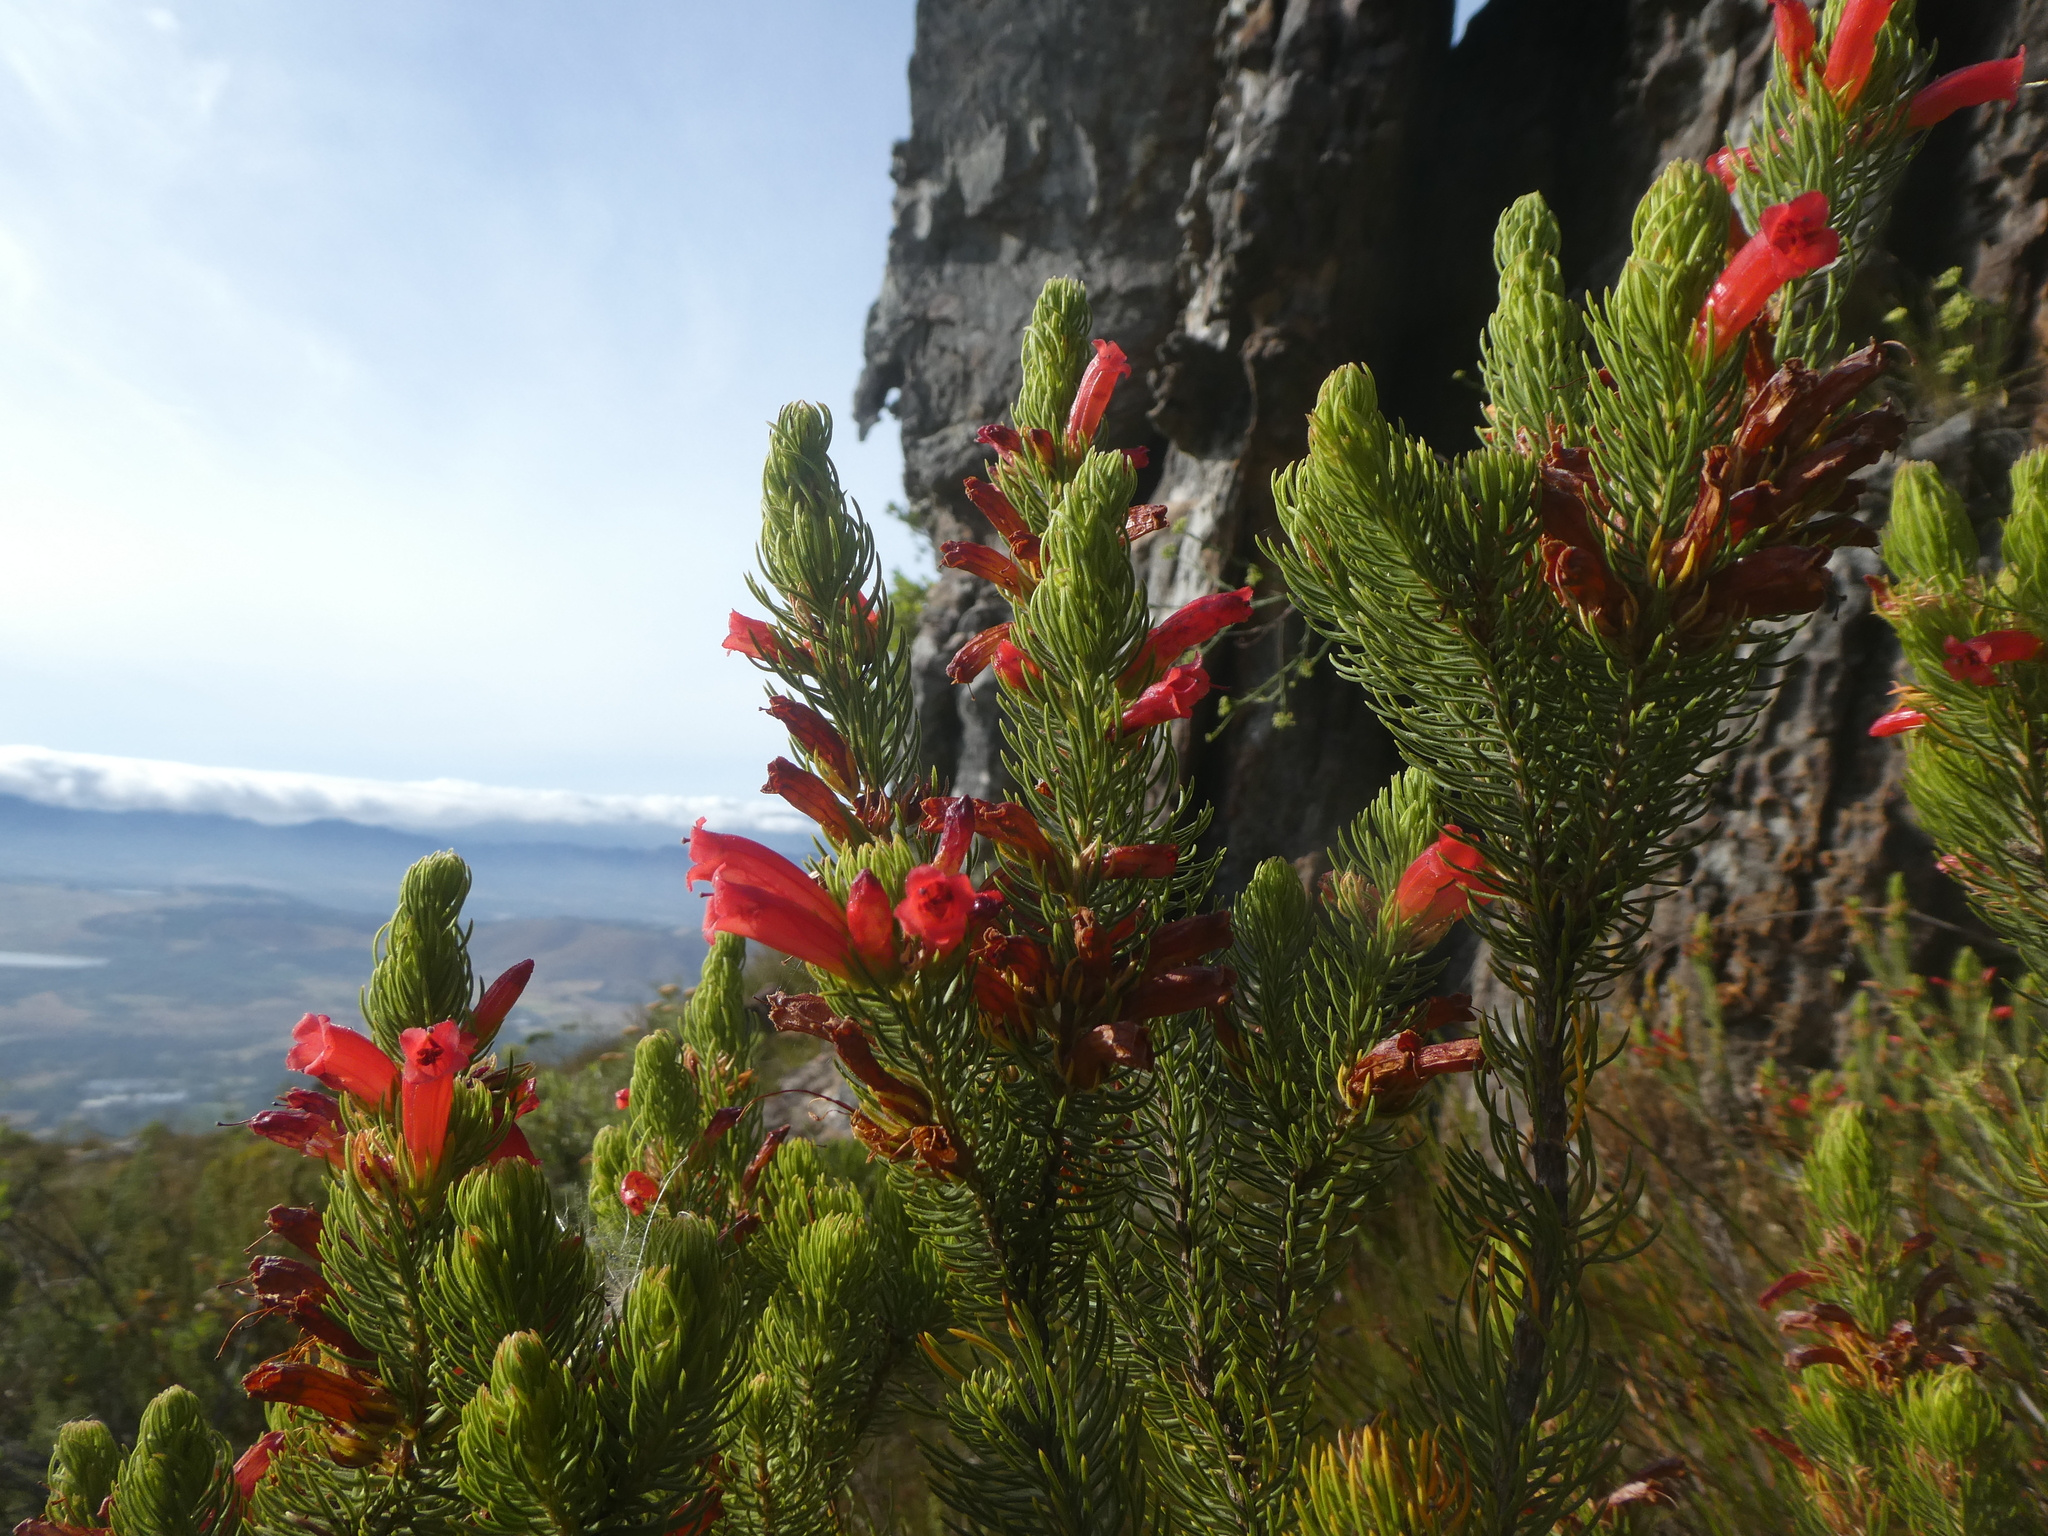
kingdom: Plantae
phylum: Tracheophyta
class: Magnoliopsida
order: Ericales
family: Ericaceae
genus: Erica
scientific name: Erica viscaria
